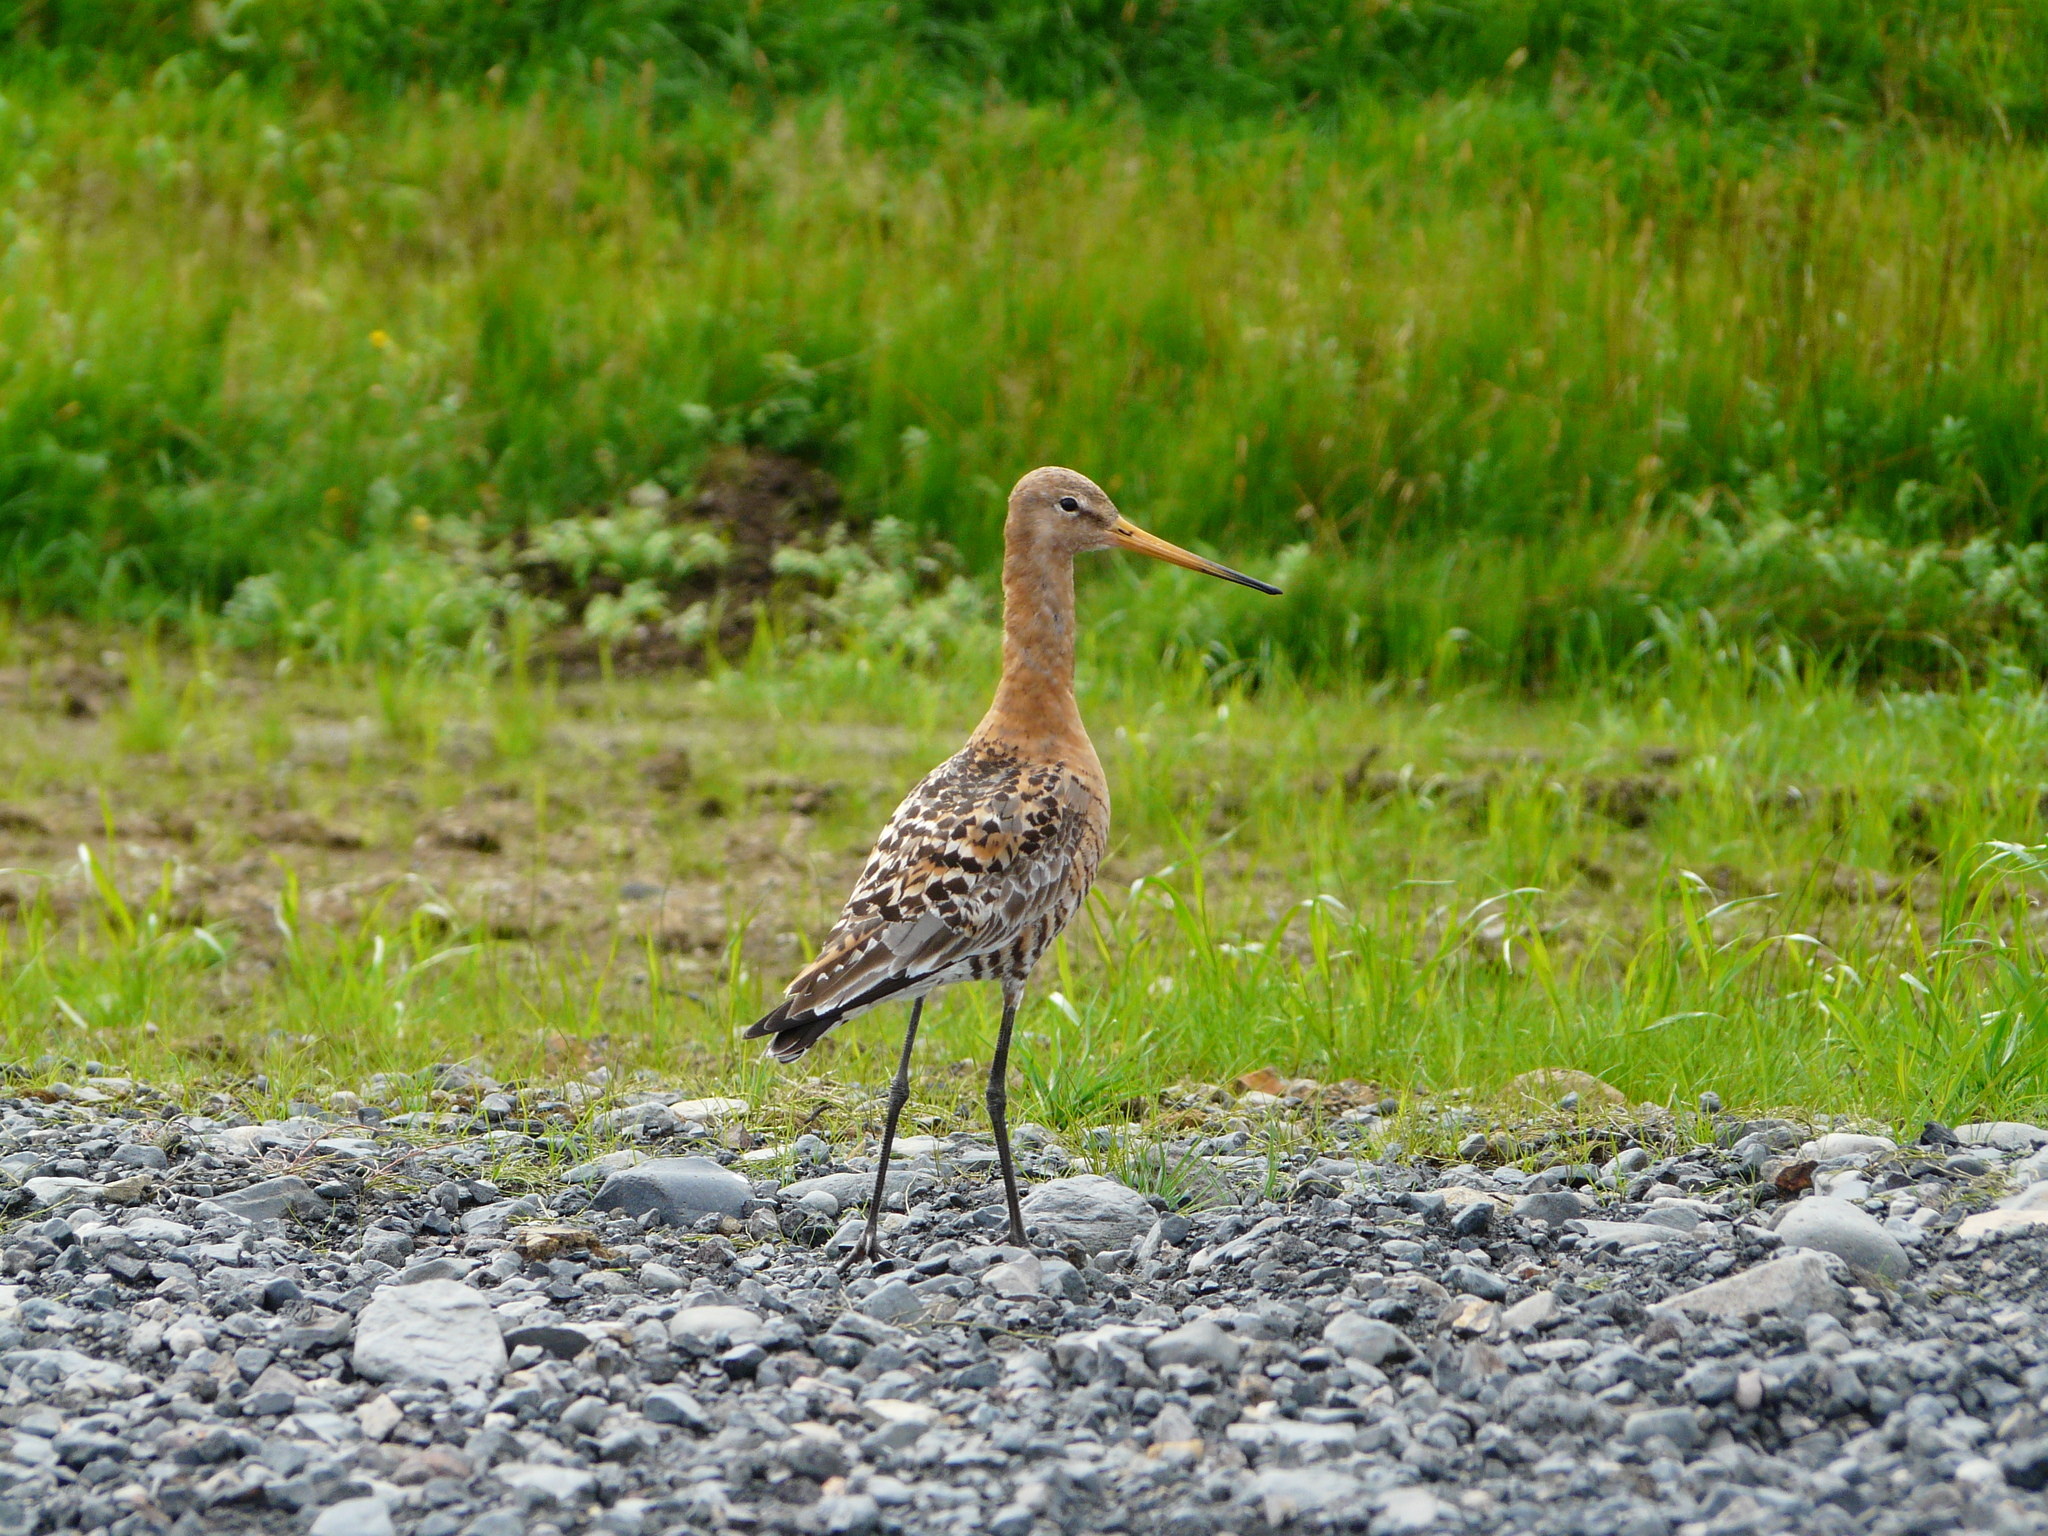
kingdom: Animalia
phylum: Chordata
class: Aves
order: Charadriiformes
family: Scolopacidae
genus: Limosa
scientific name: Limosa limosa
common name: Black-tailed godwit
